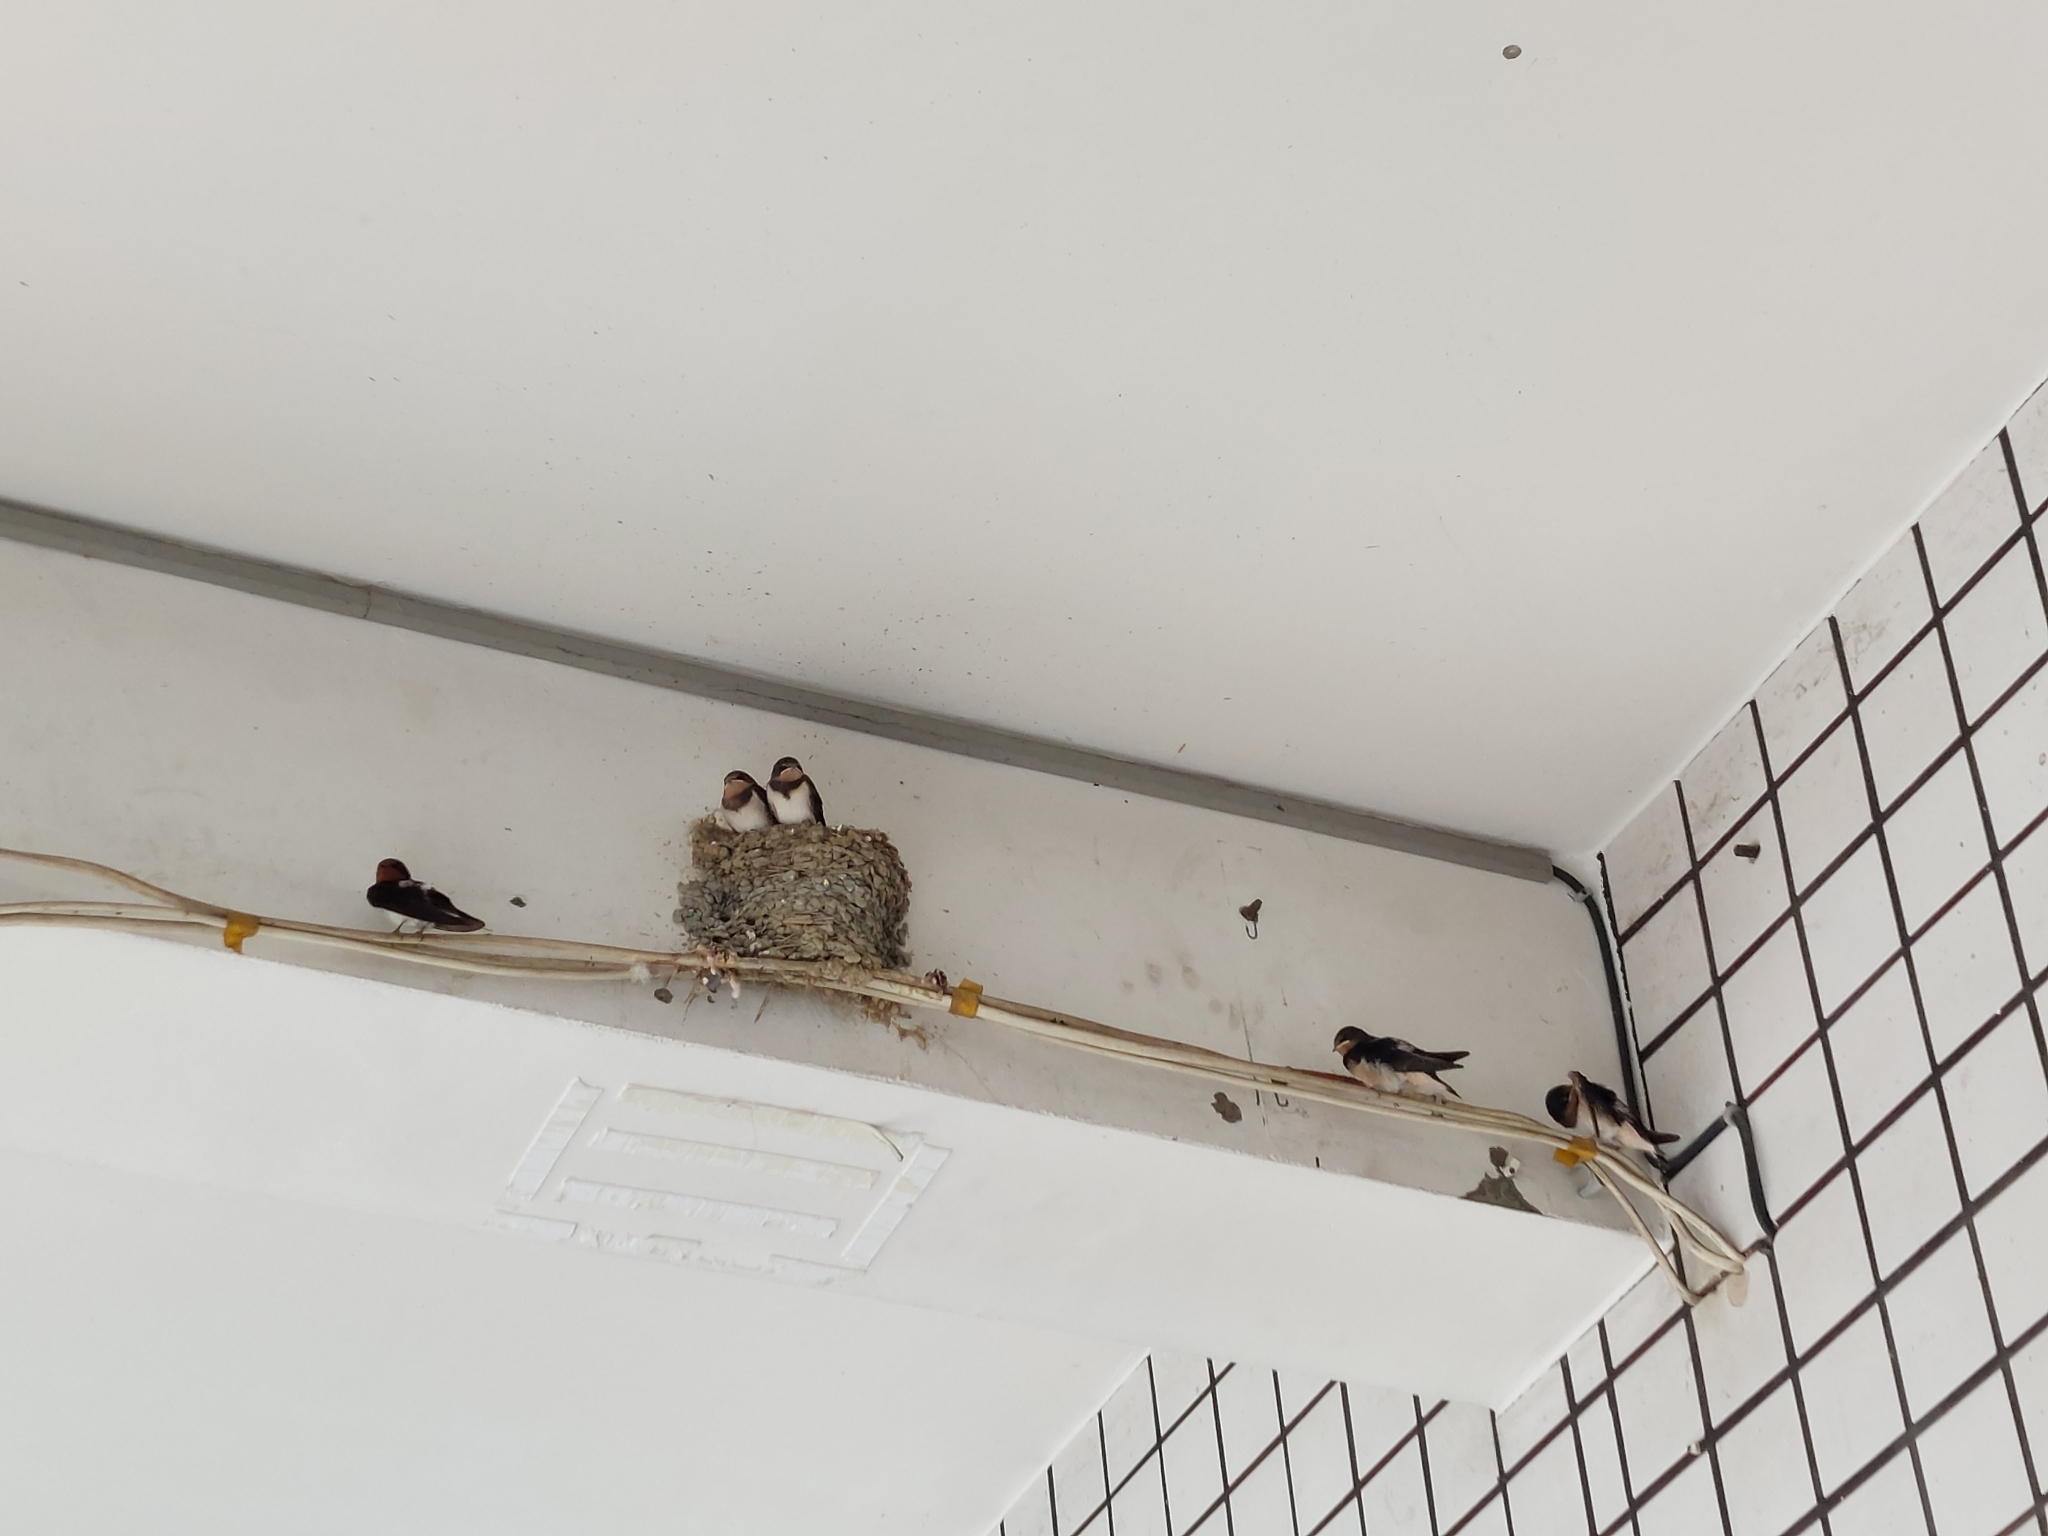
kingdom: Animalia
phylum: Chordata
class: Aves
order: Passeriformes
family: Hirundinidae
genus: Hirundo
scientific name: Hirundo rustica
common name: Barn swallow
